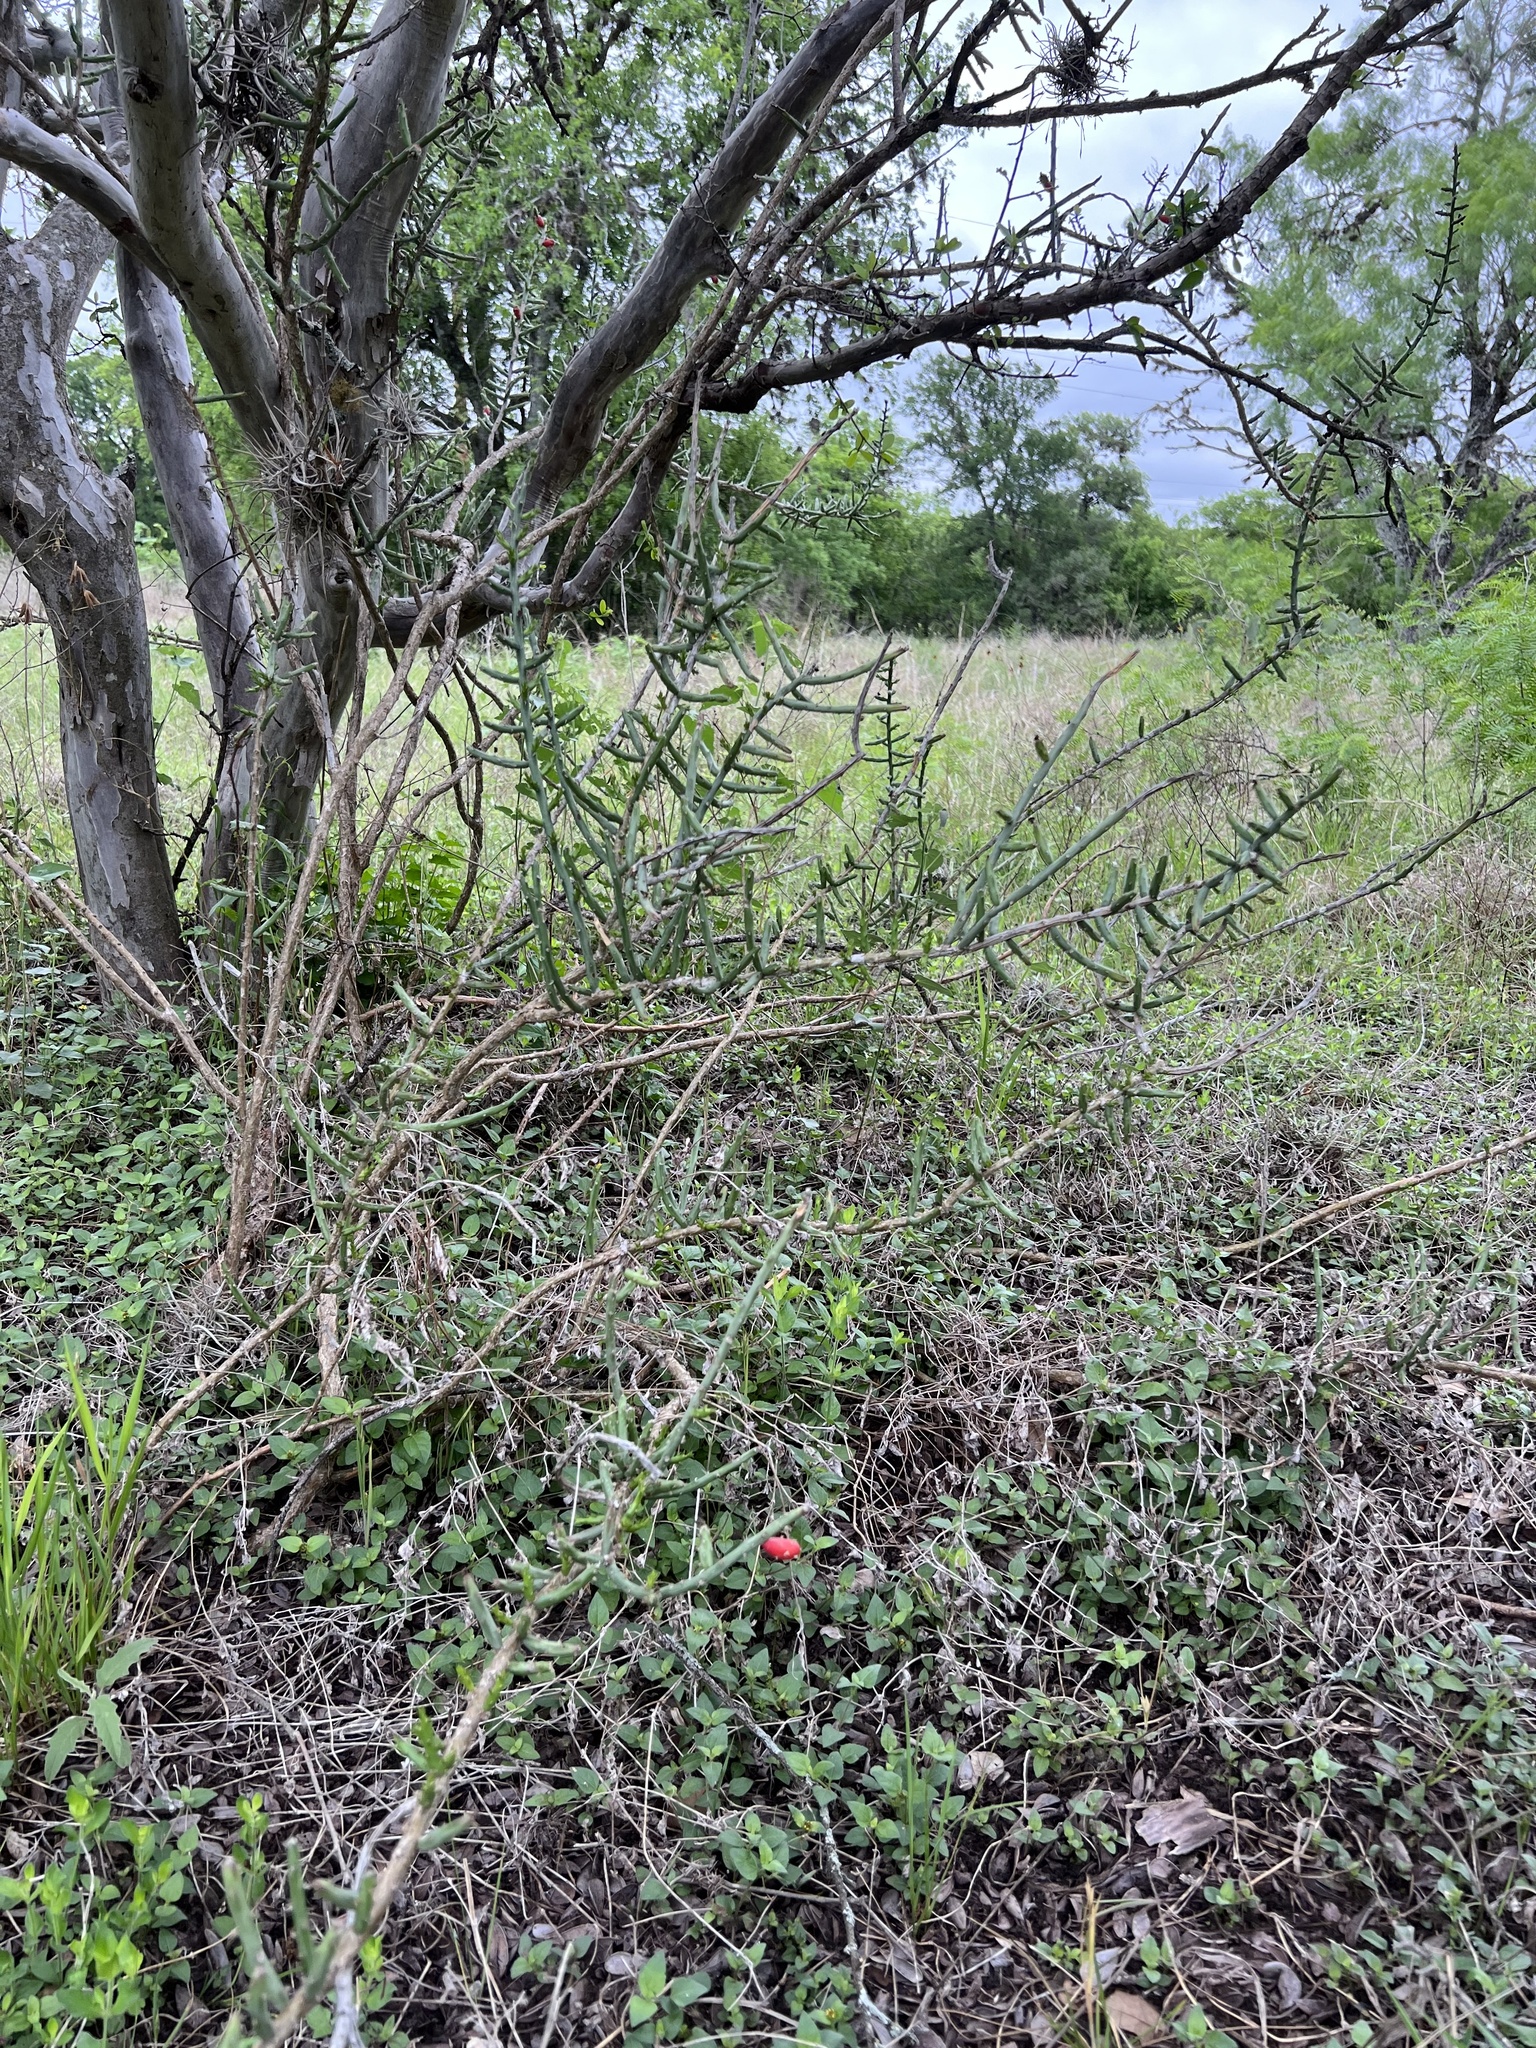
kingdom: Plantae
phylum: Tracheophyta
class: Magnoliopsida
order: Caryophyllales
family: Cactaceae
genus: Cylindropuntia
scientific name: Cylindropuntia leptocaulis
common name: Christmas cactus
